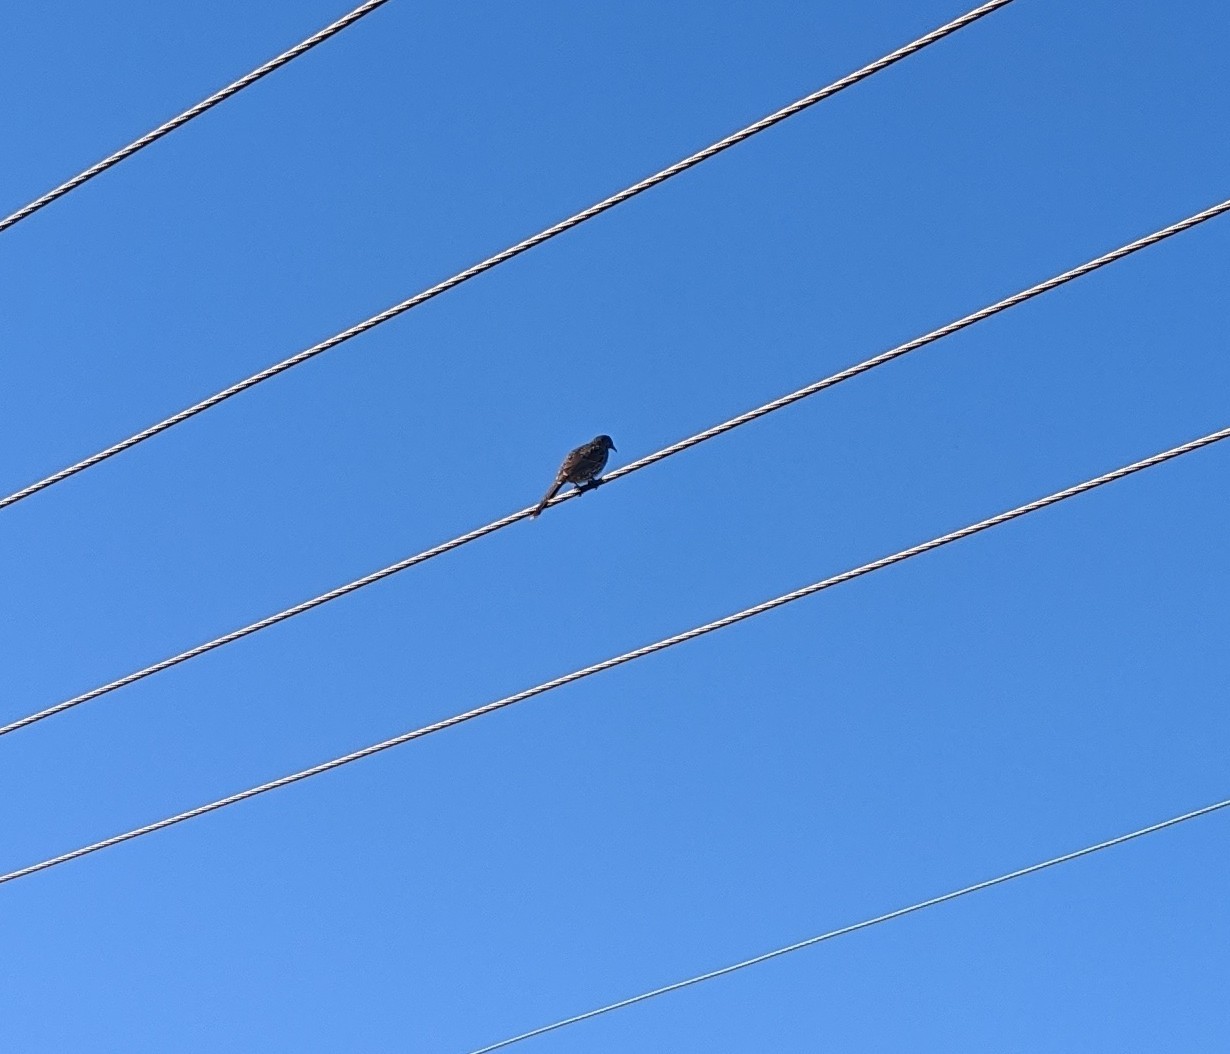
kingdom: Animalia
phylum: Chordata
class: Aves
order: Passeriformes
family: Meliphagidae
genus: Anthochaera
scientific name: Anthochaera chrysoptera
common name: Little wattlebird
